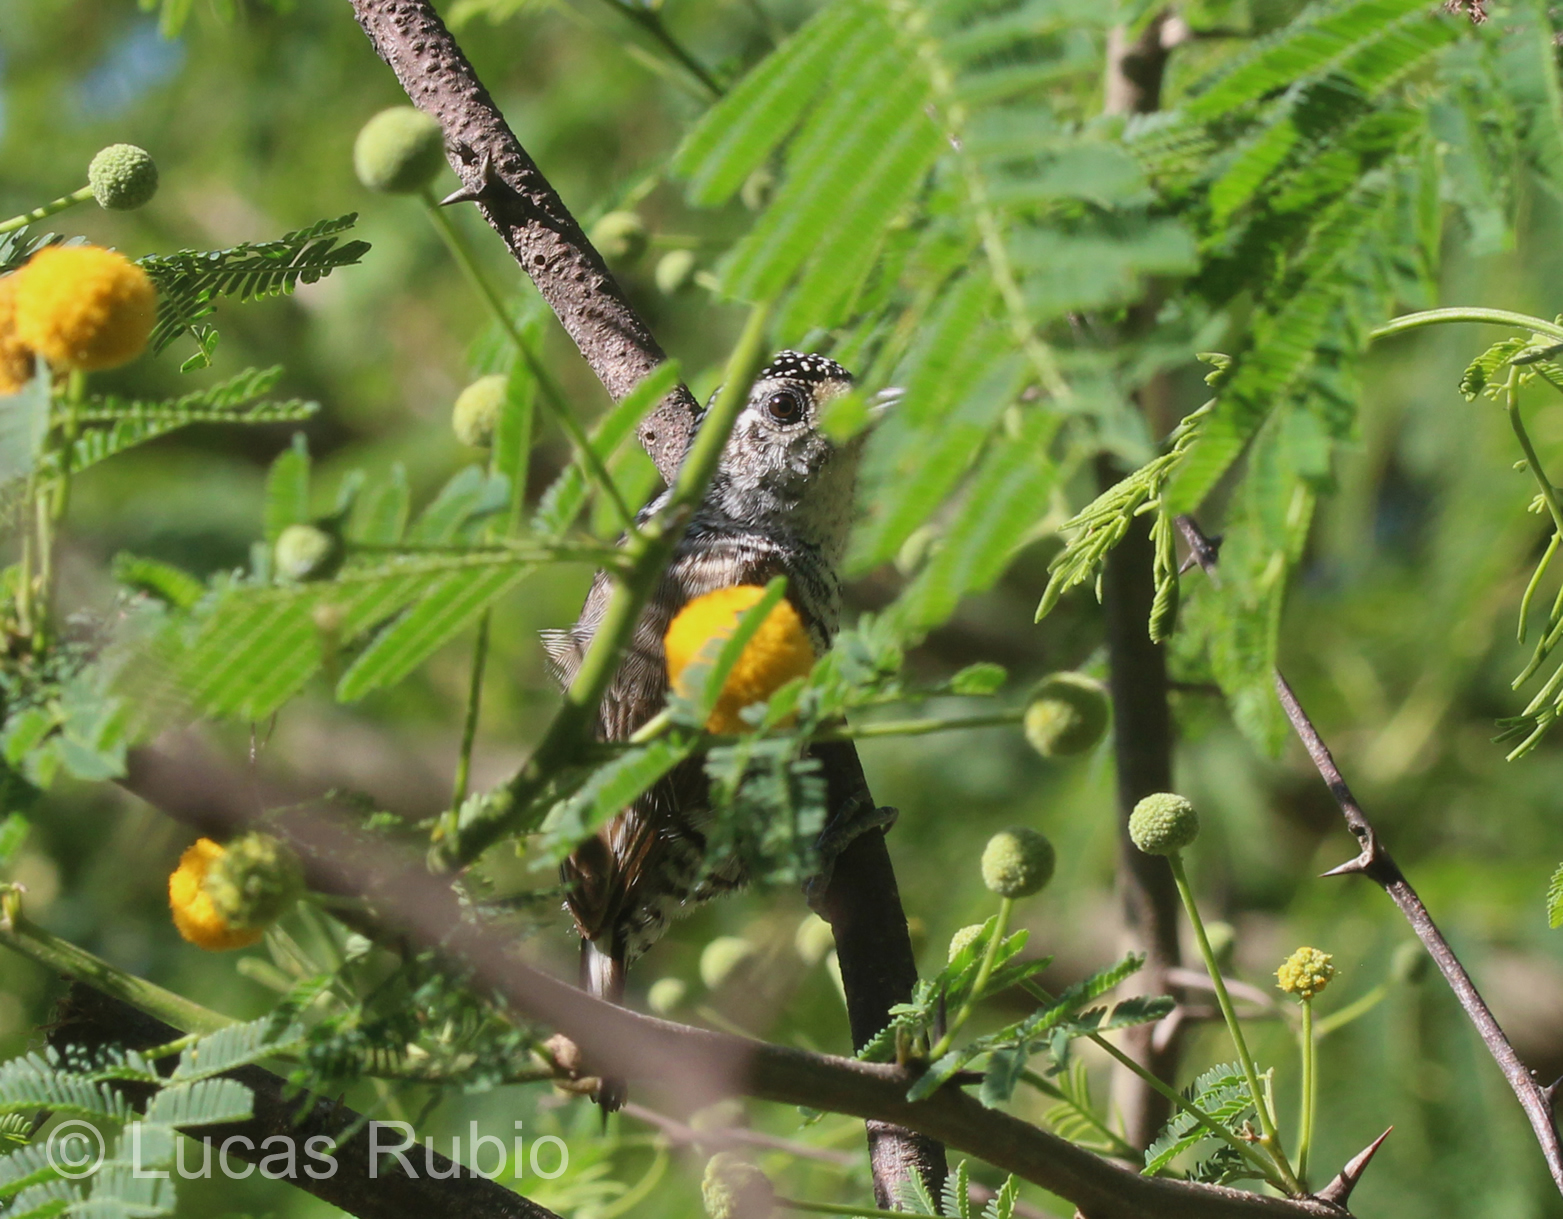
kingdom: Animalia
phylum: Chordata
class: Aves
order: Piciformes
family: Picidae
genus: Picumnus
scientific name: Picumnus cirratus
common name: White-barred piculet
